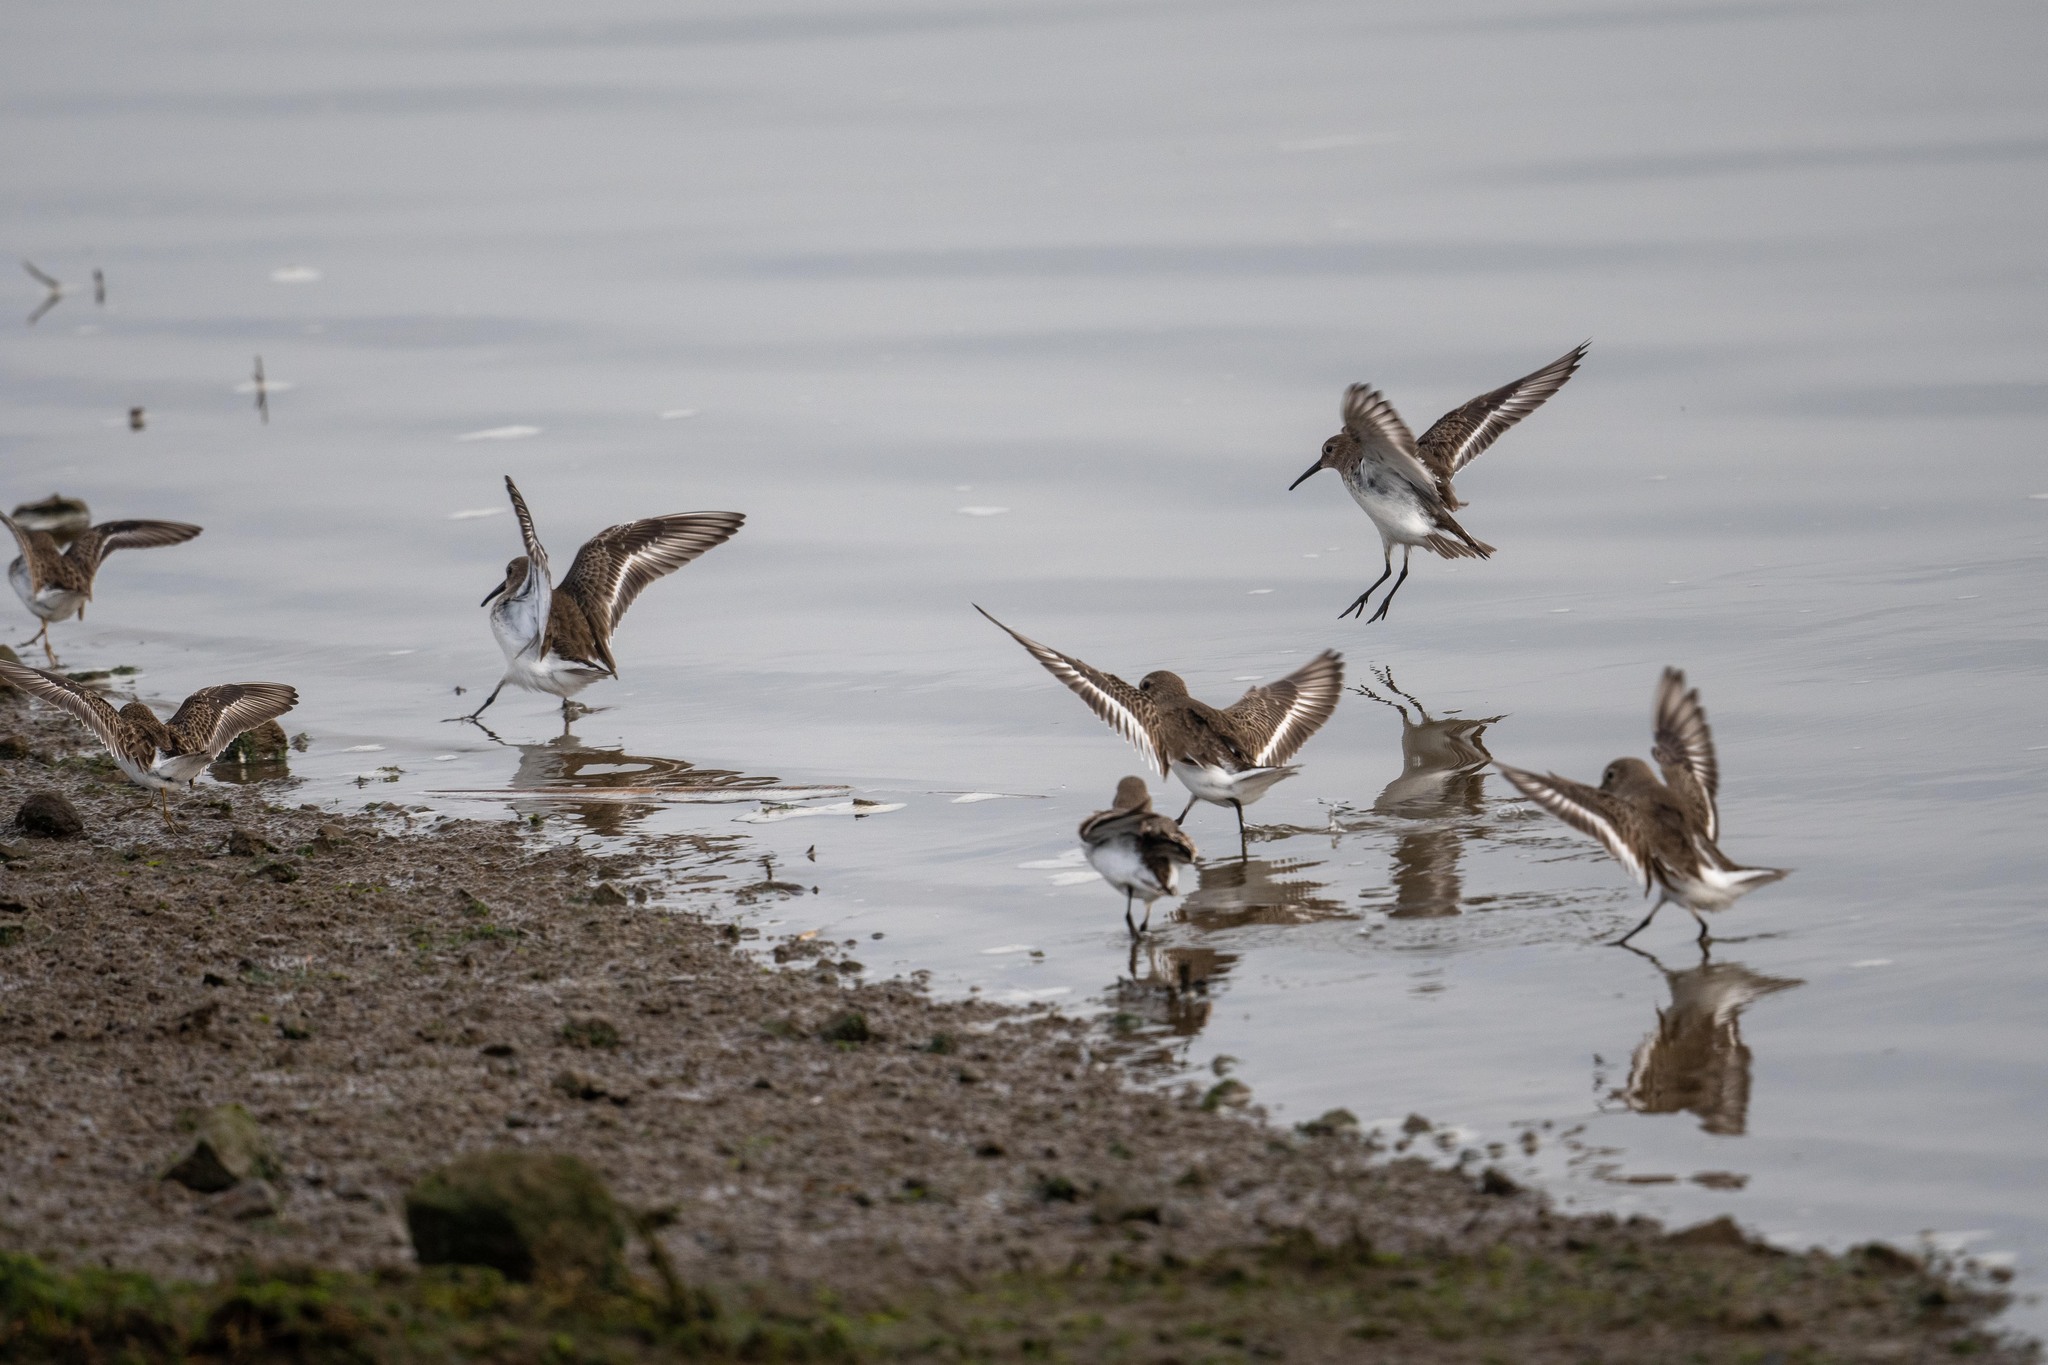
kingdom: Animalia
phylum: Chordata
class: Aves
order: Charadriiformes
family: Scolopacidae
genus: Calidris
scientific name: Calidris alpina
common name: Dunlin
